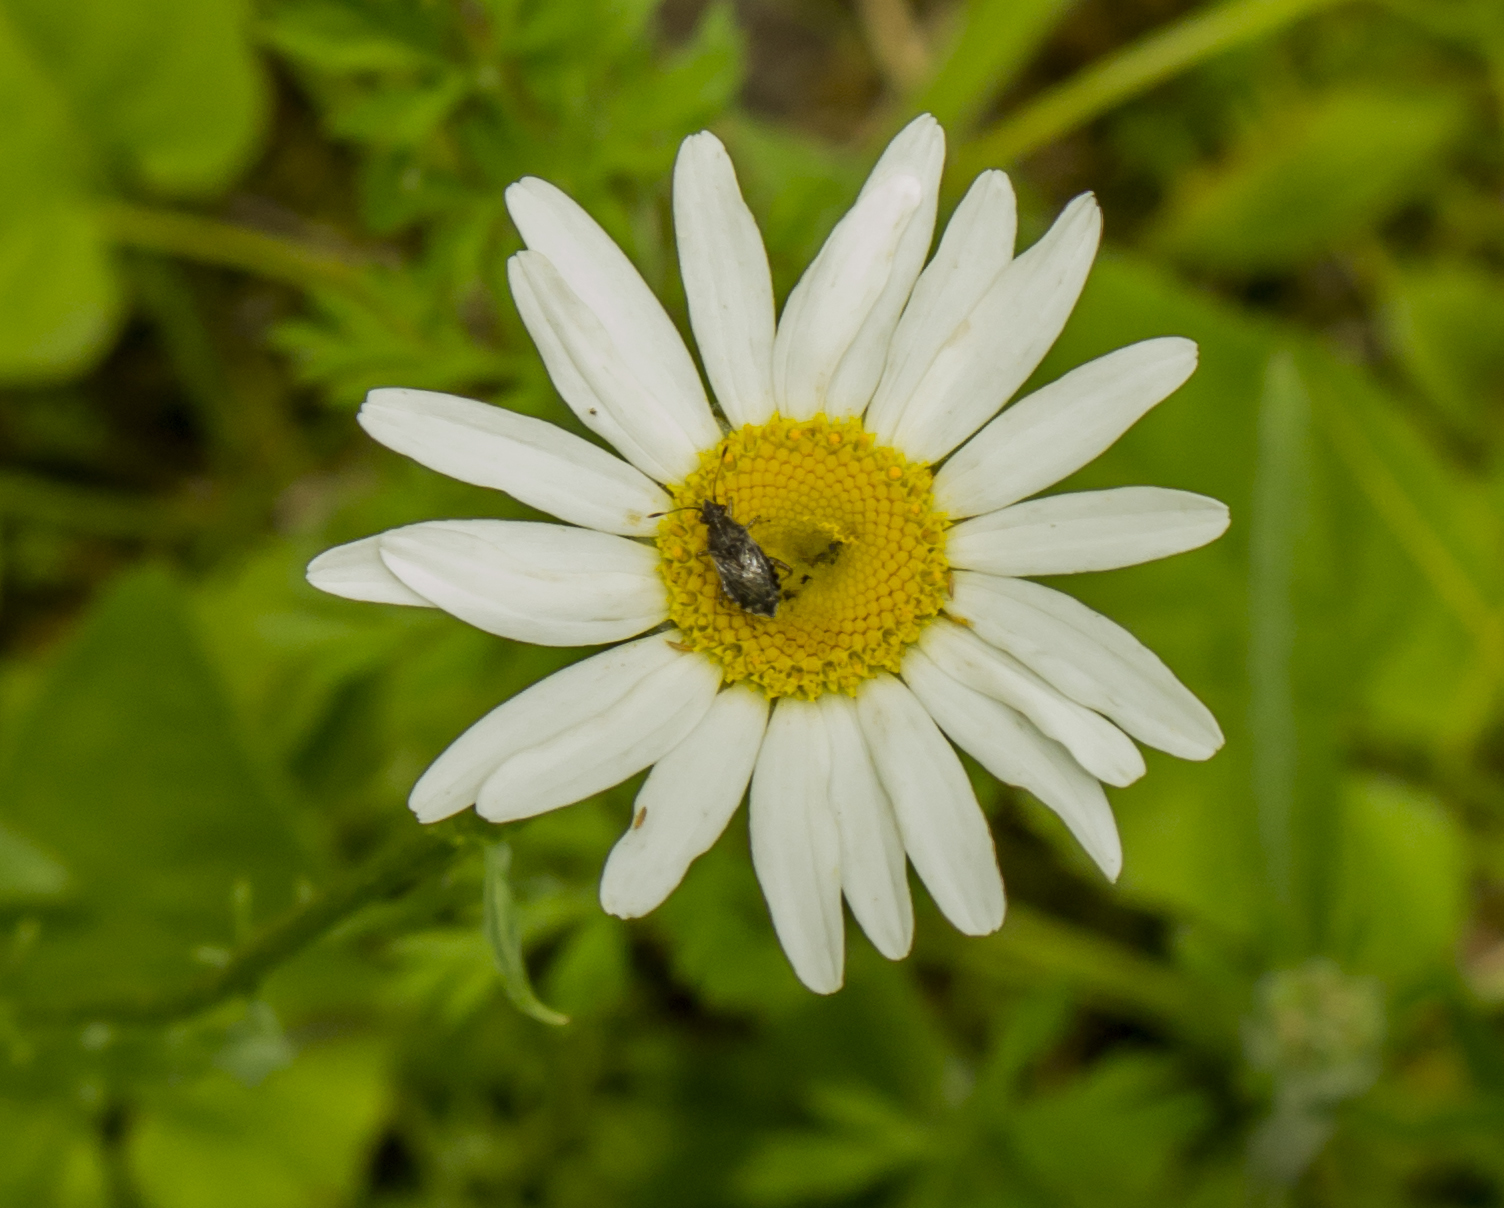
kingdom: Plantae
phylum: Tracheophyta
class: Magnoliopsida
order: Asterales
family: Asteraceae
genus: Leucanthemum
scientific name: Leucanthemum vulgare
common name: Oxeye daisy
